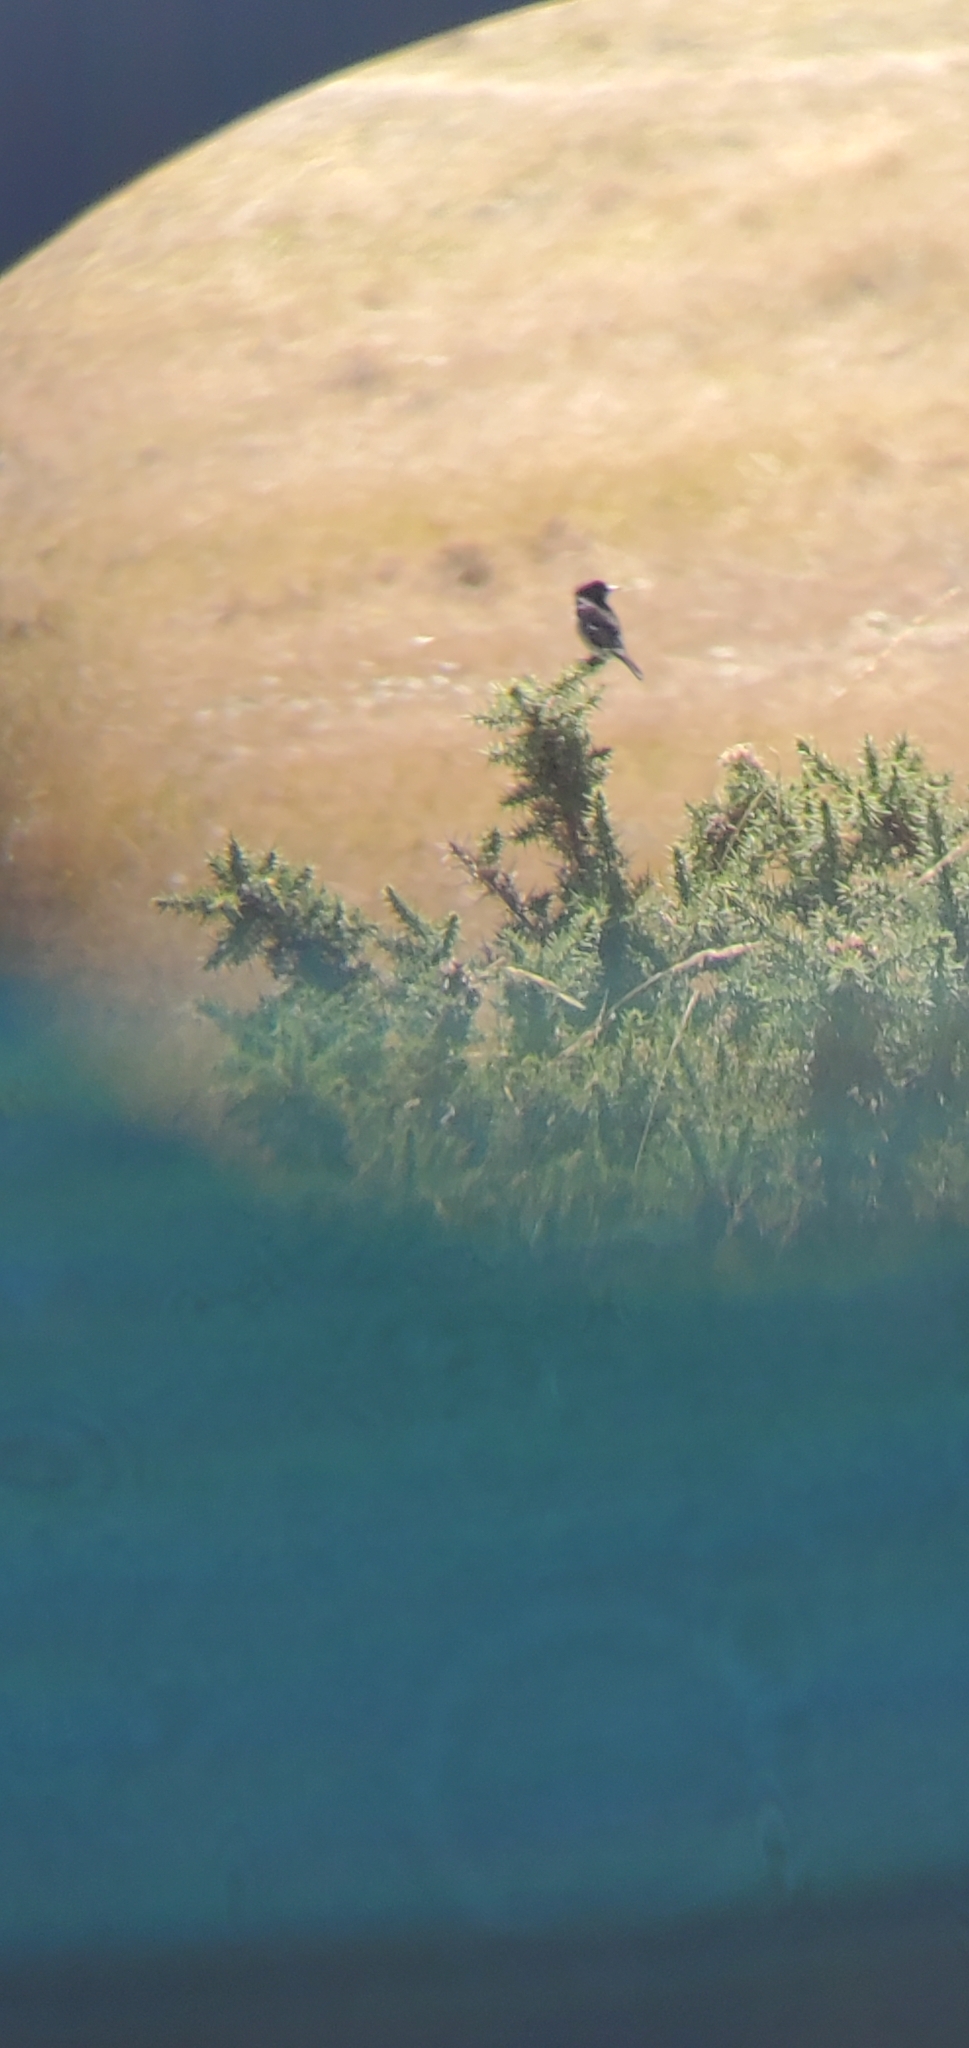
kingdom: Animalia
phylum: Chordata
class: Aves
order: Passeriformes
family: Muscicapidae
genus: Saxicola
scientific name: Saxicola rubicola
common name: European stonechat
